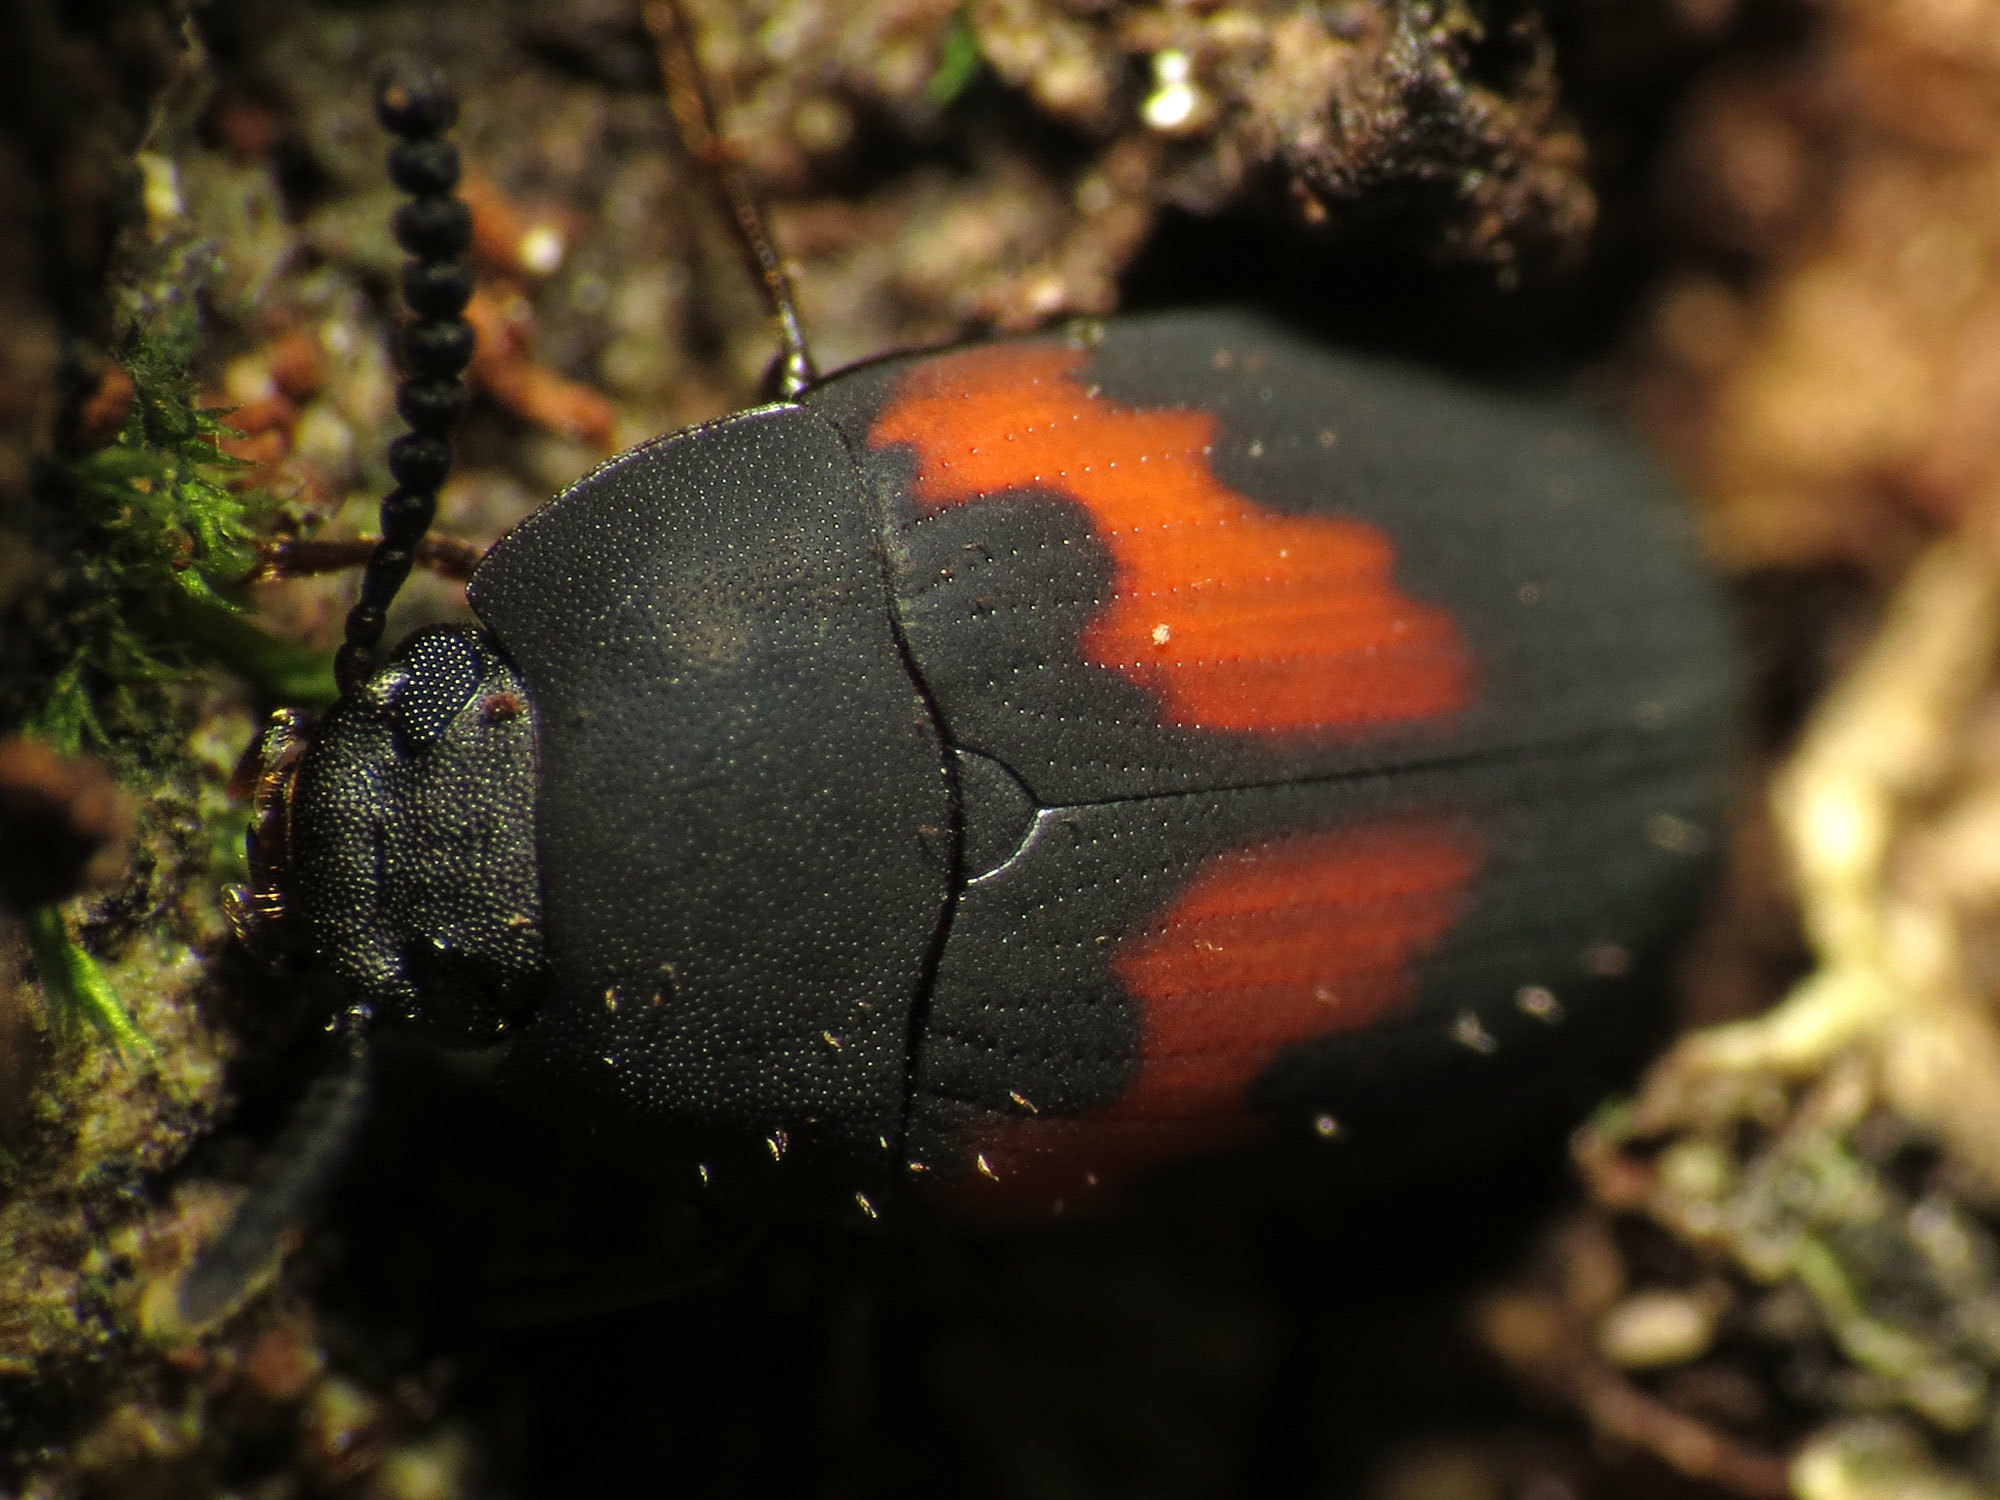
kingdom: Animalia
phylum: Arthropoda
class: Insecta
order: Coleoptera
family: Tenebrionidae
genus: Platydema
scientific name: Platydema elliptica
